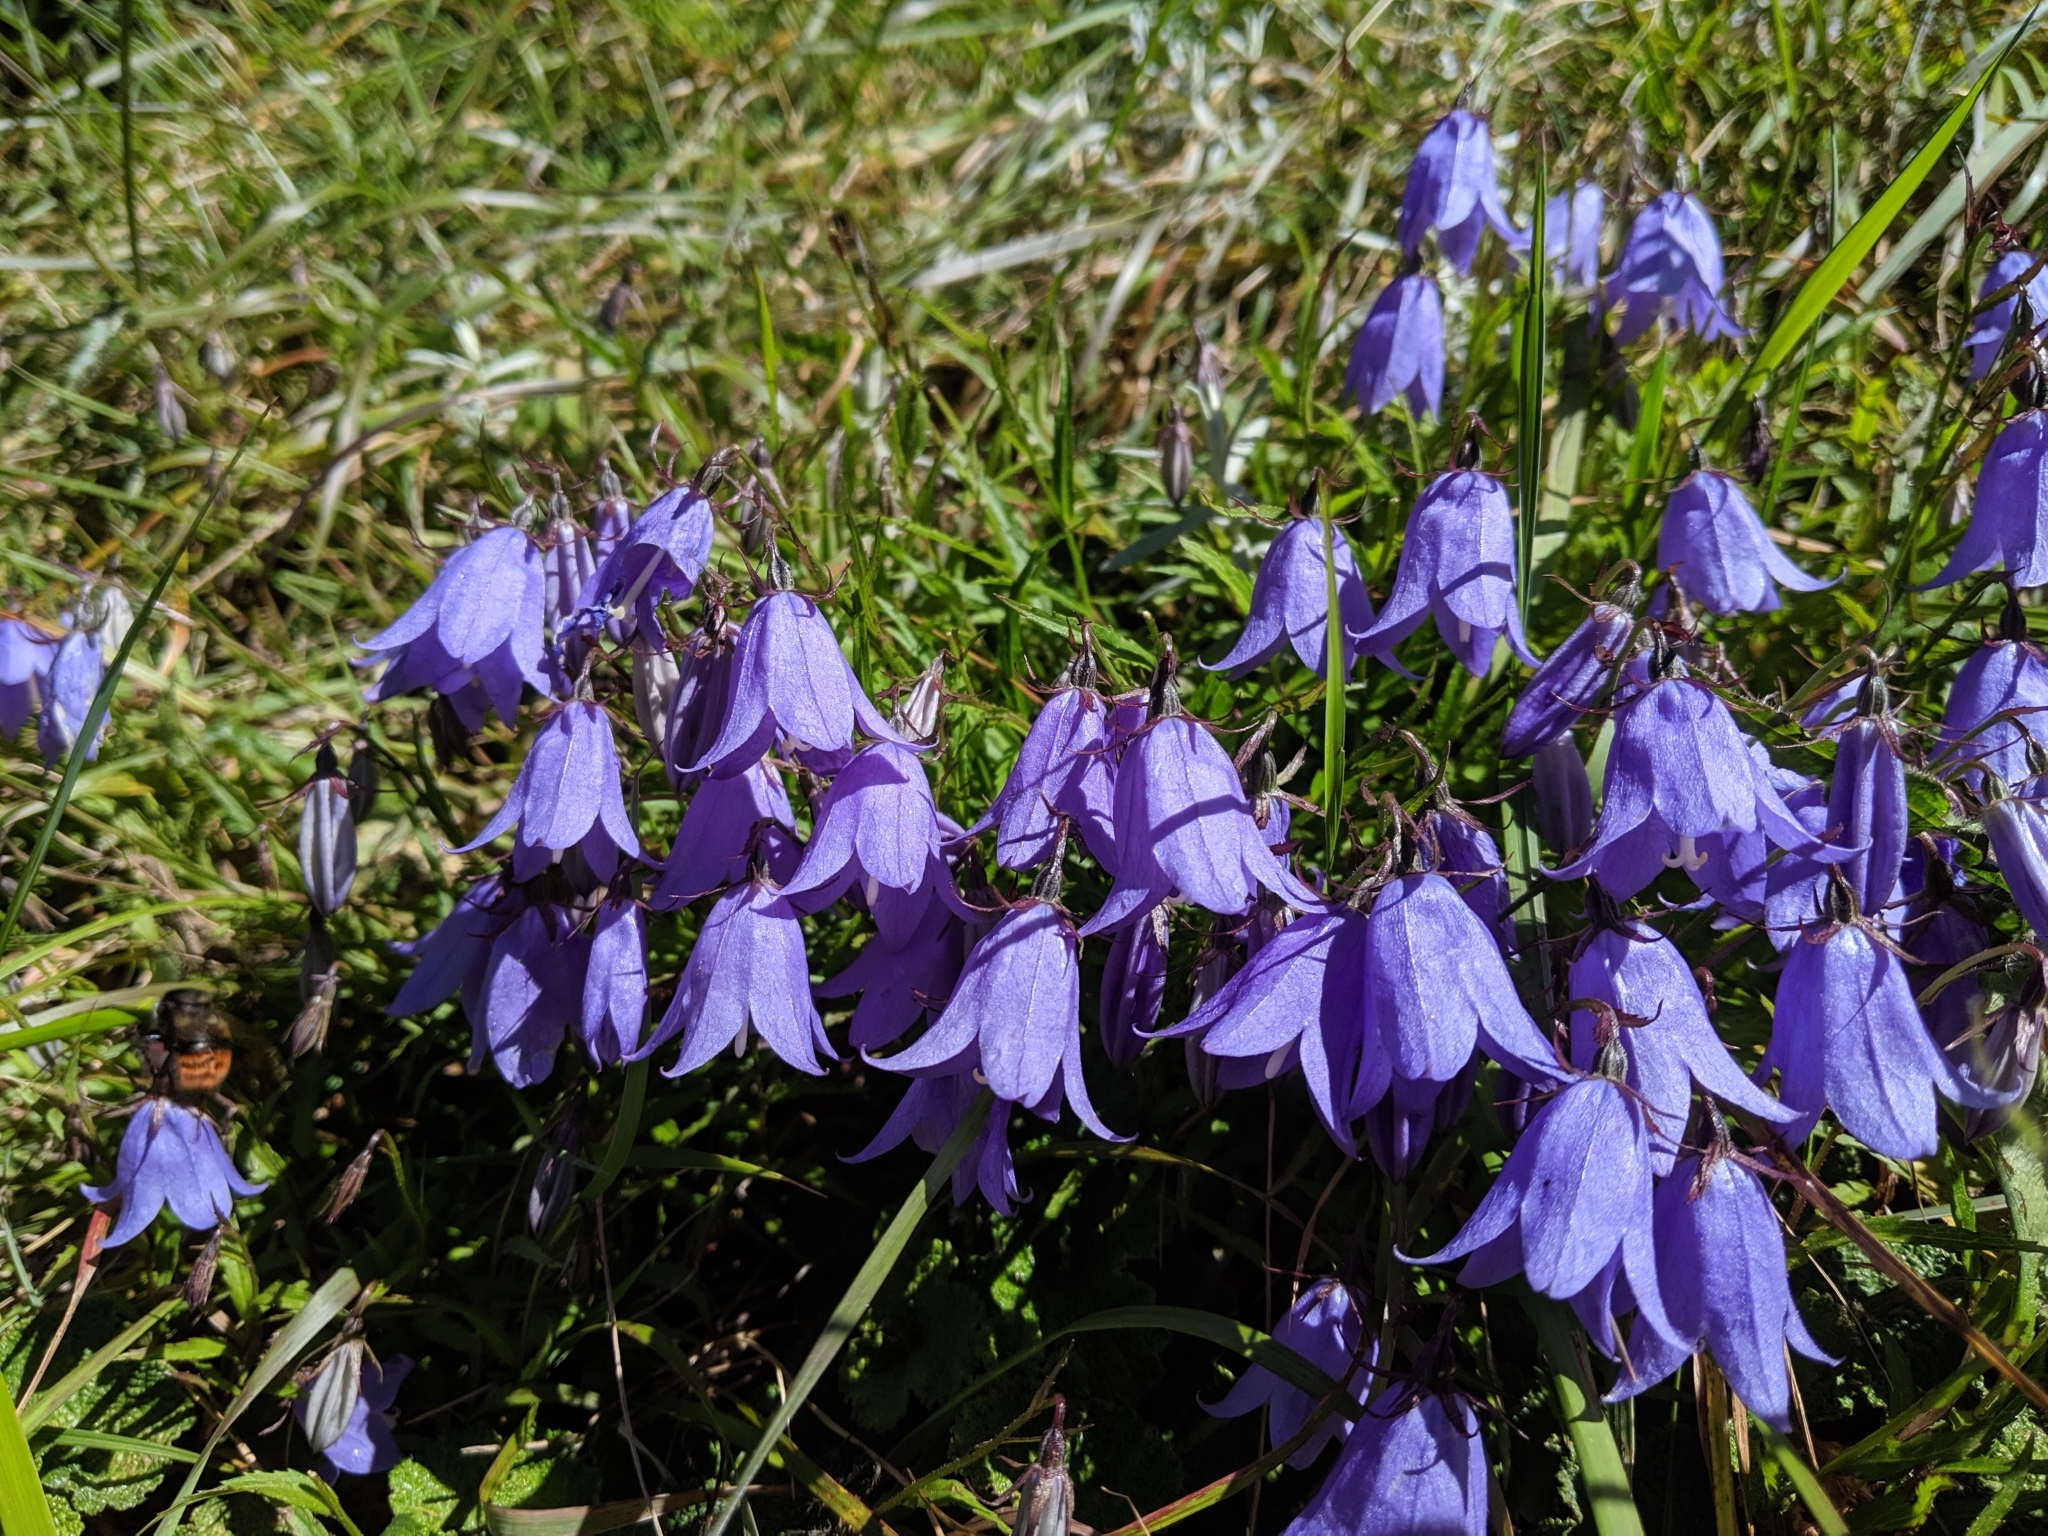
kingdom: Plantae
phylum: Tracheophyta
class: Magnoliopsida
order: Asterales
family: Campanulaceae
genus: Adenophora
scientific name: Adenophora morrisonensis
